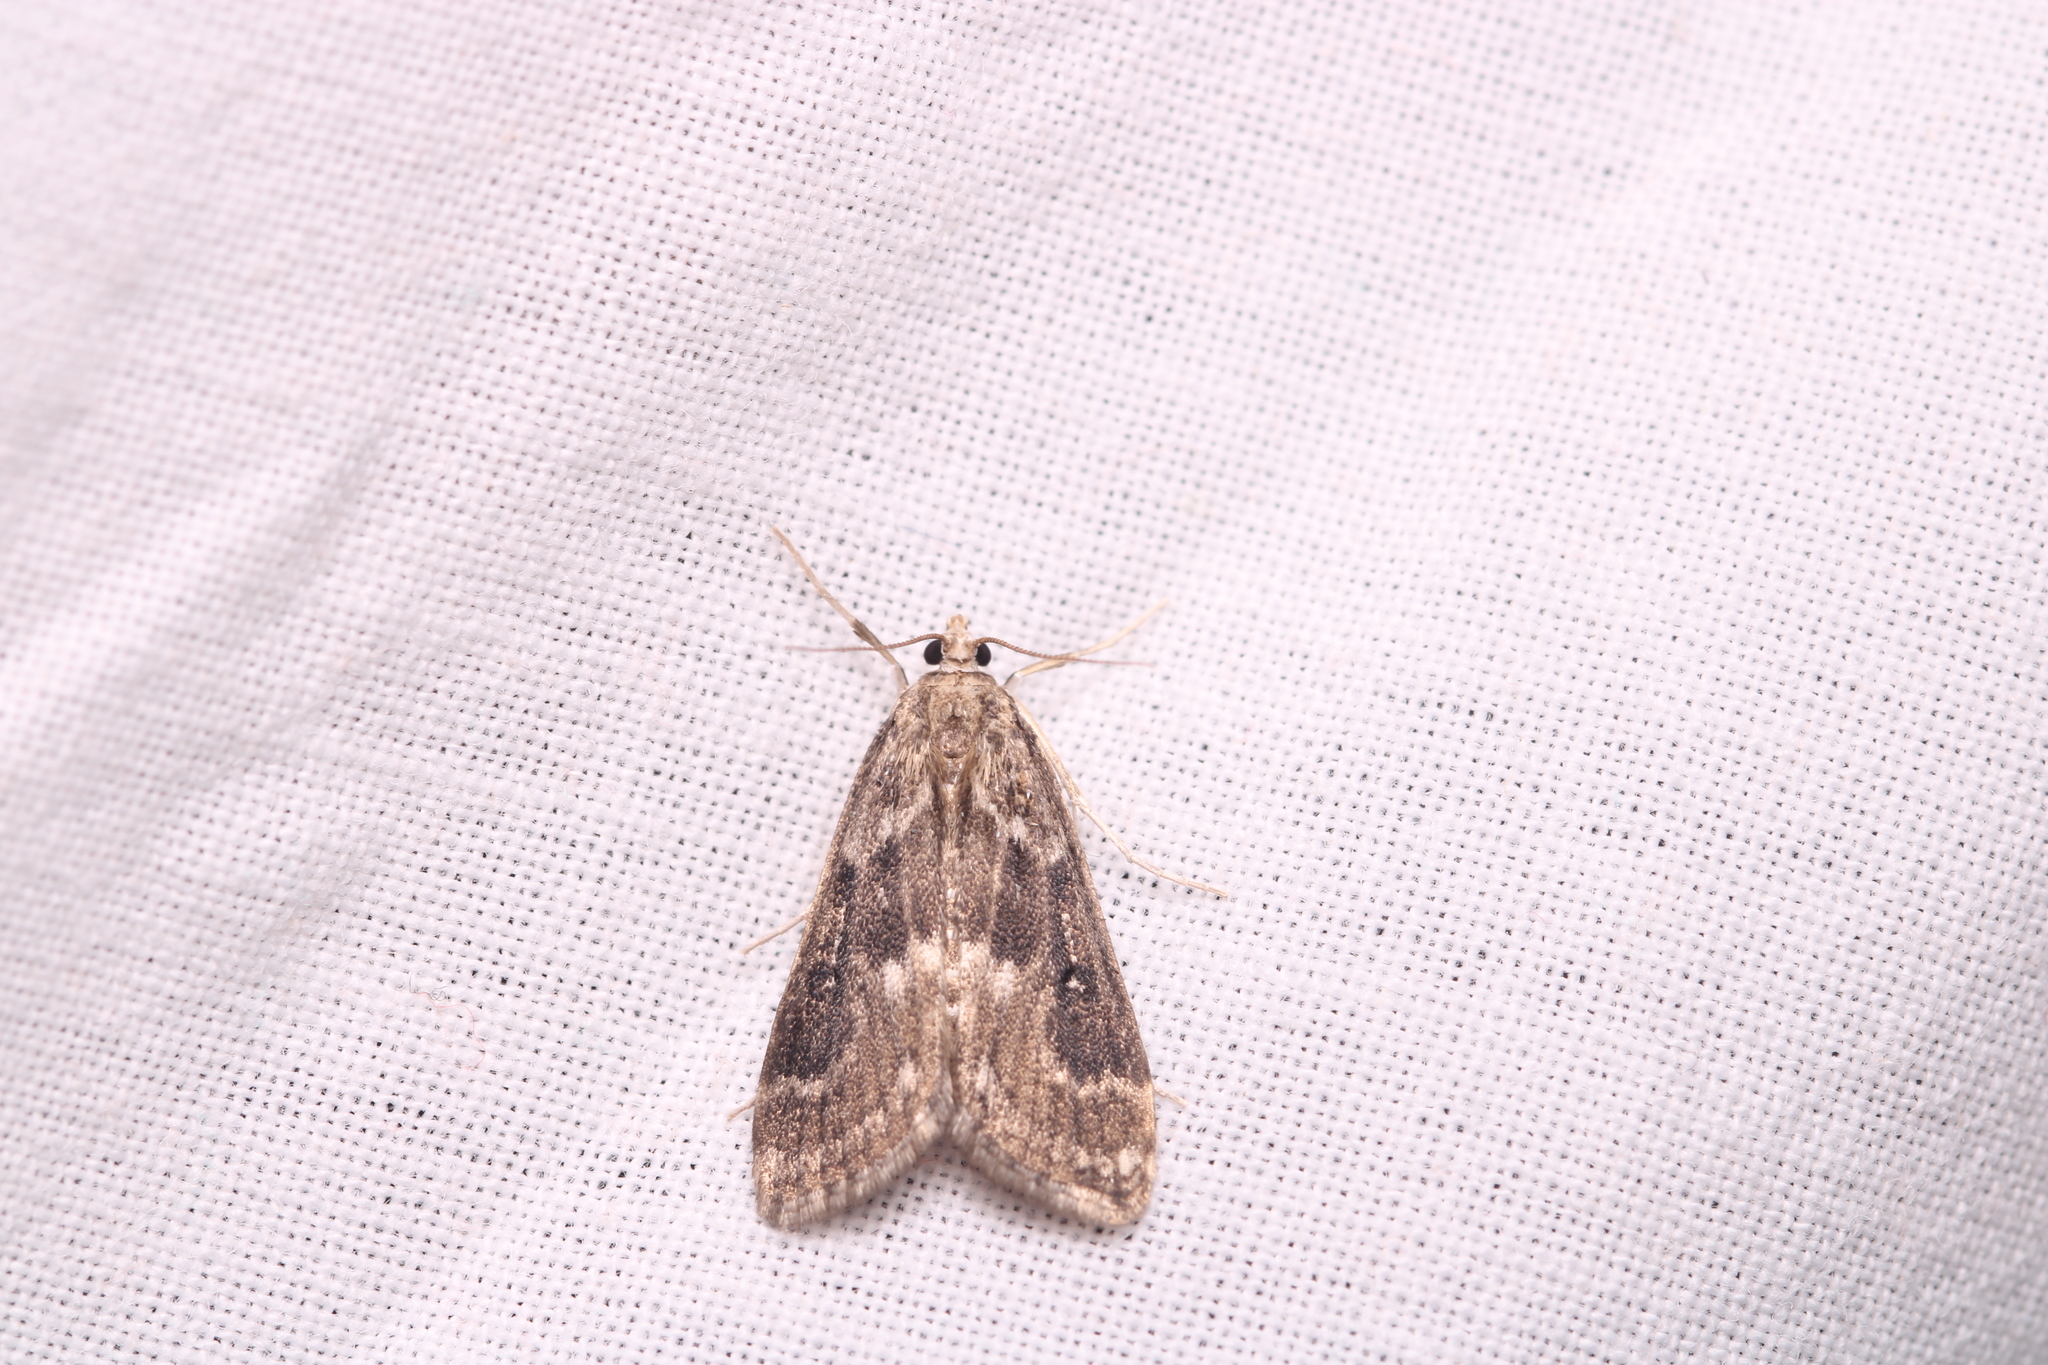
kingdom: Animalia
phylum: Arthropoda
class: Insecta
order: Lepidoptera
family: Crambidae
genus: Parapoynx
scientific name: Parapoynx stratiotata
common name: Ringed china-mark
